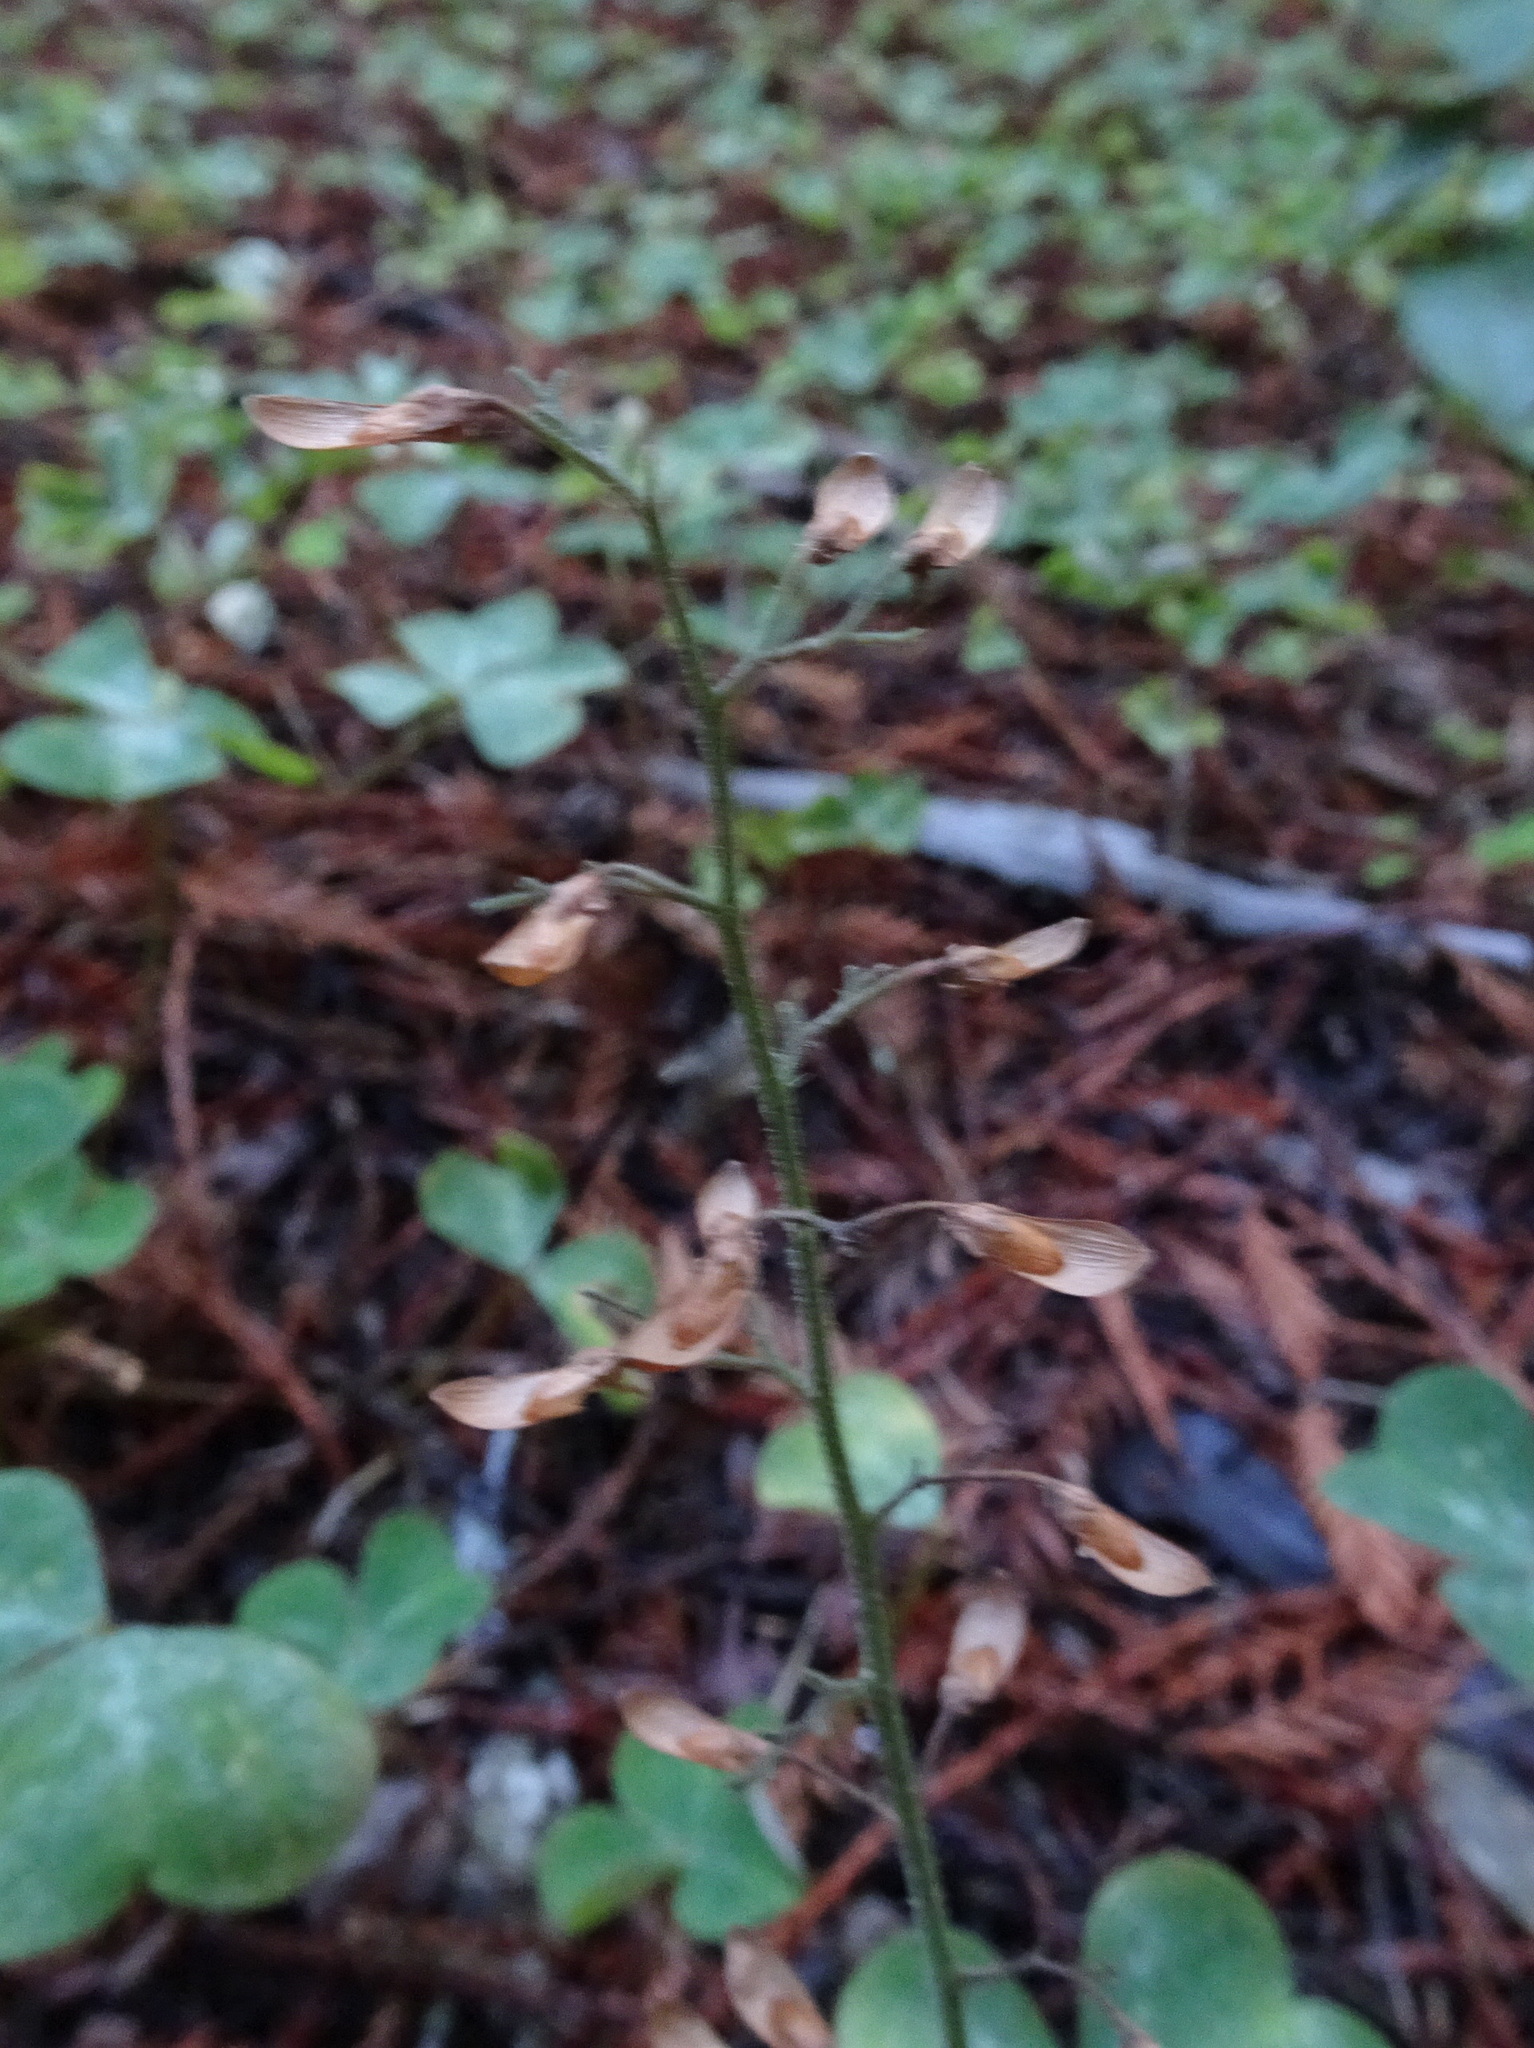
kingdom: Plantae
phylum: Tracheophyta
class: Magnoliopsida
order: Saxifragales
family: Saxifragaceae
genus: Tiarella
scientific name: Tiarella trifoliata
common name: Sugar-scoop
